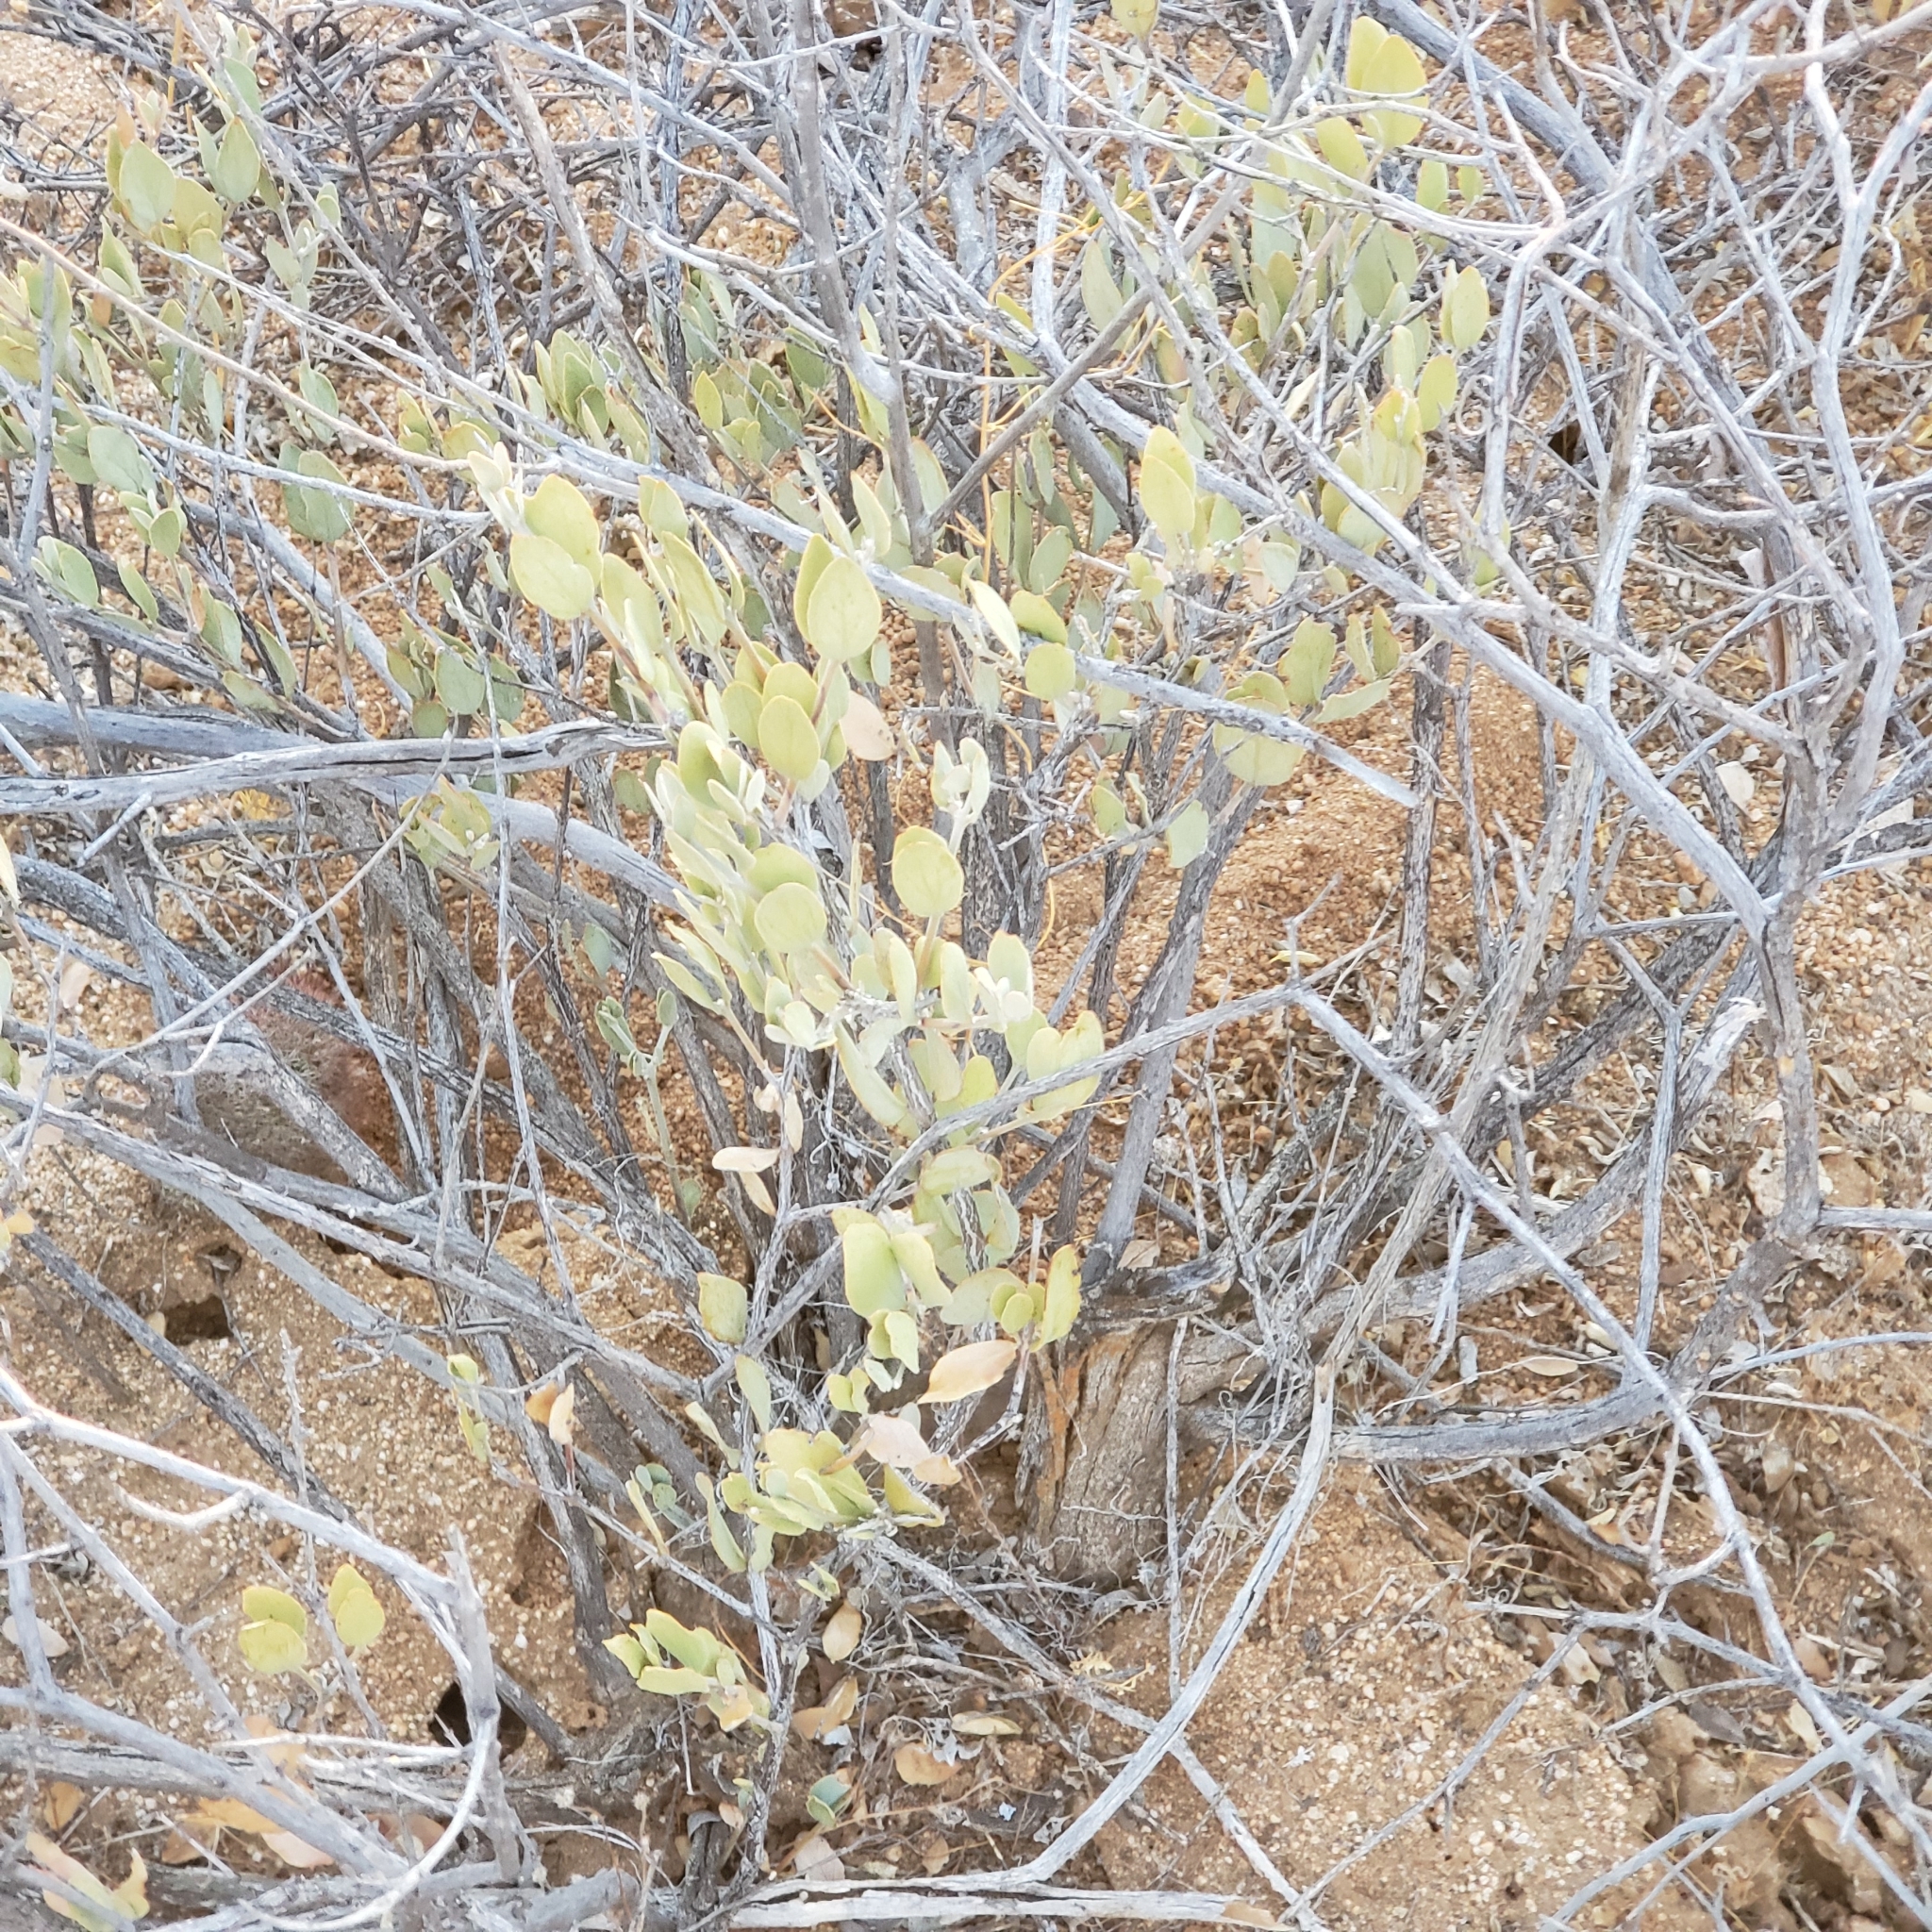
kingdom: Plantae
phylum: Tracheophyta
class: Magnoliopsida
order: Caryophyllales
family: Simmondsiaceae
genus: Simmondsia
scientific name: Simmondsia chinensis
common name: Jojoba
